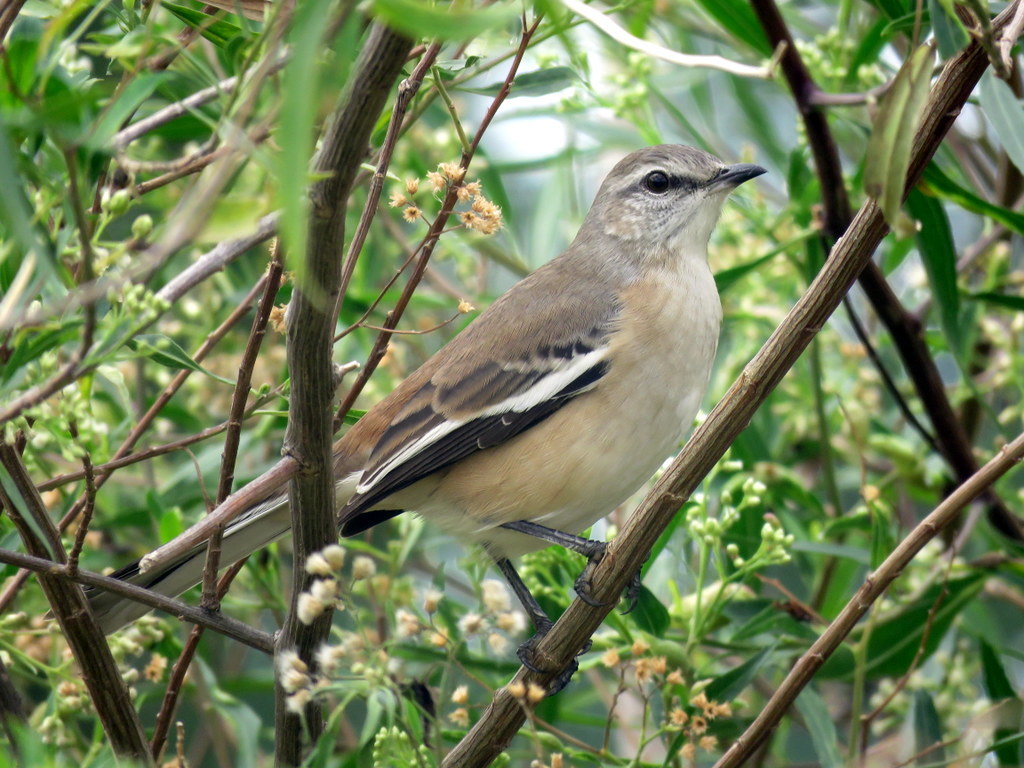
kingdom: Animalia
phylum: Chordata
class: Aves
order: Passeriformes
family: Mimidae
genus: Mimus
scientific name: Mimus triurus
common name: White-banded mockingbird
